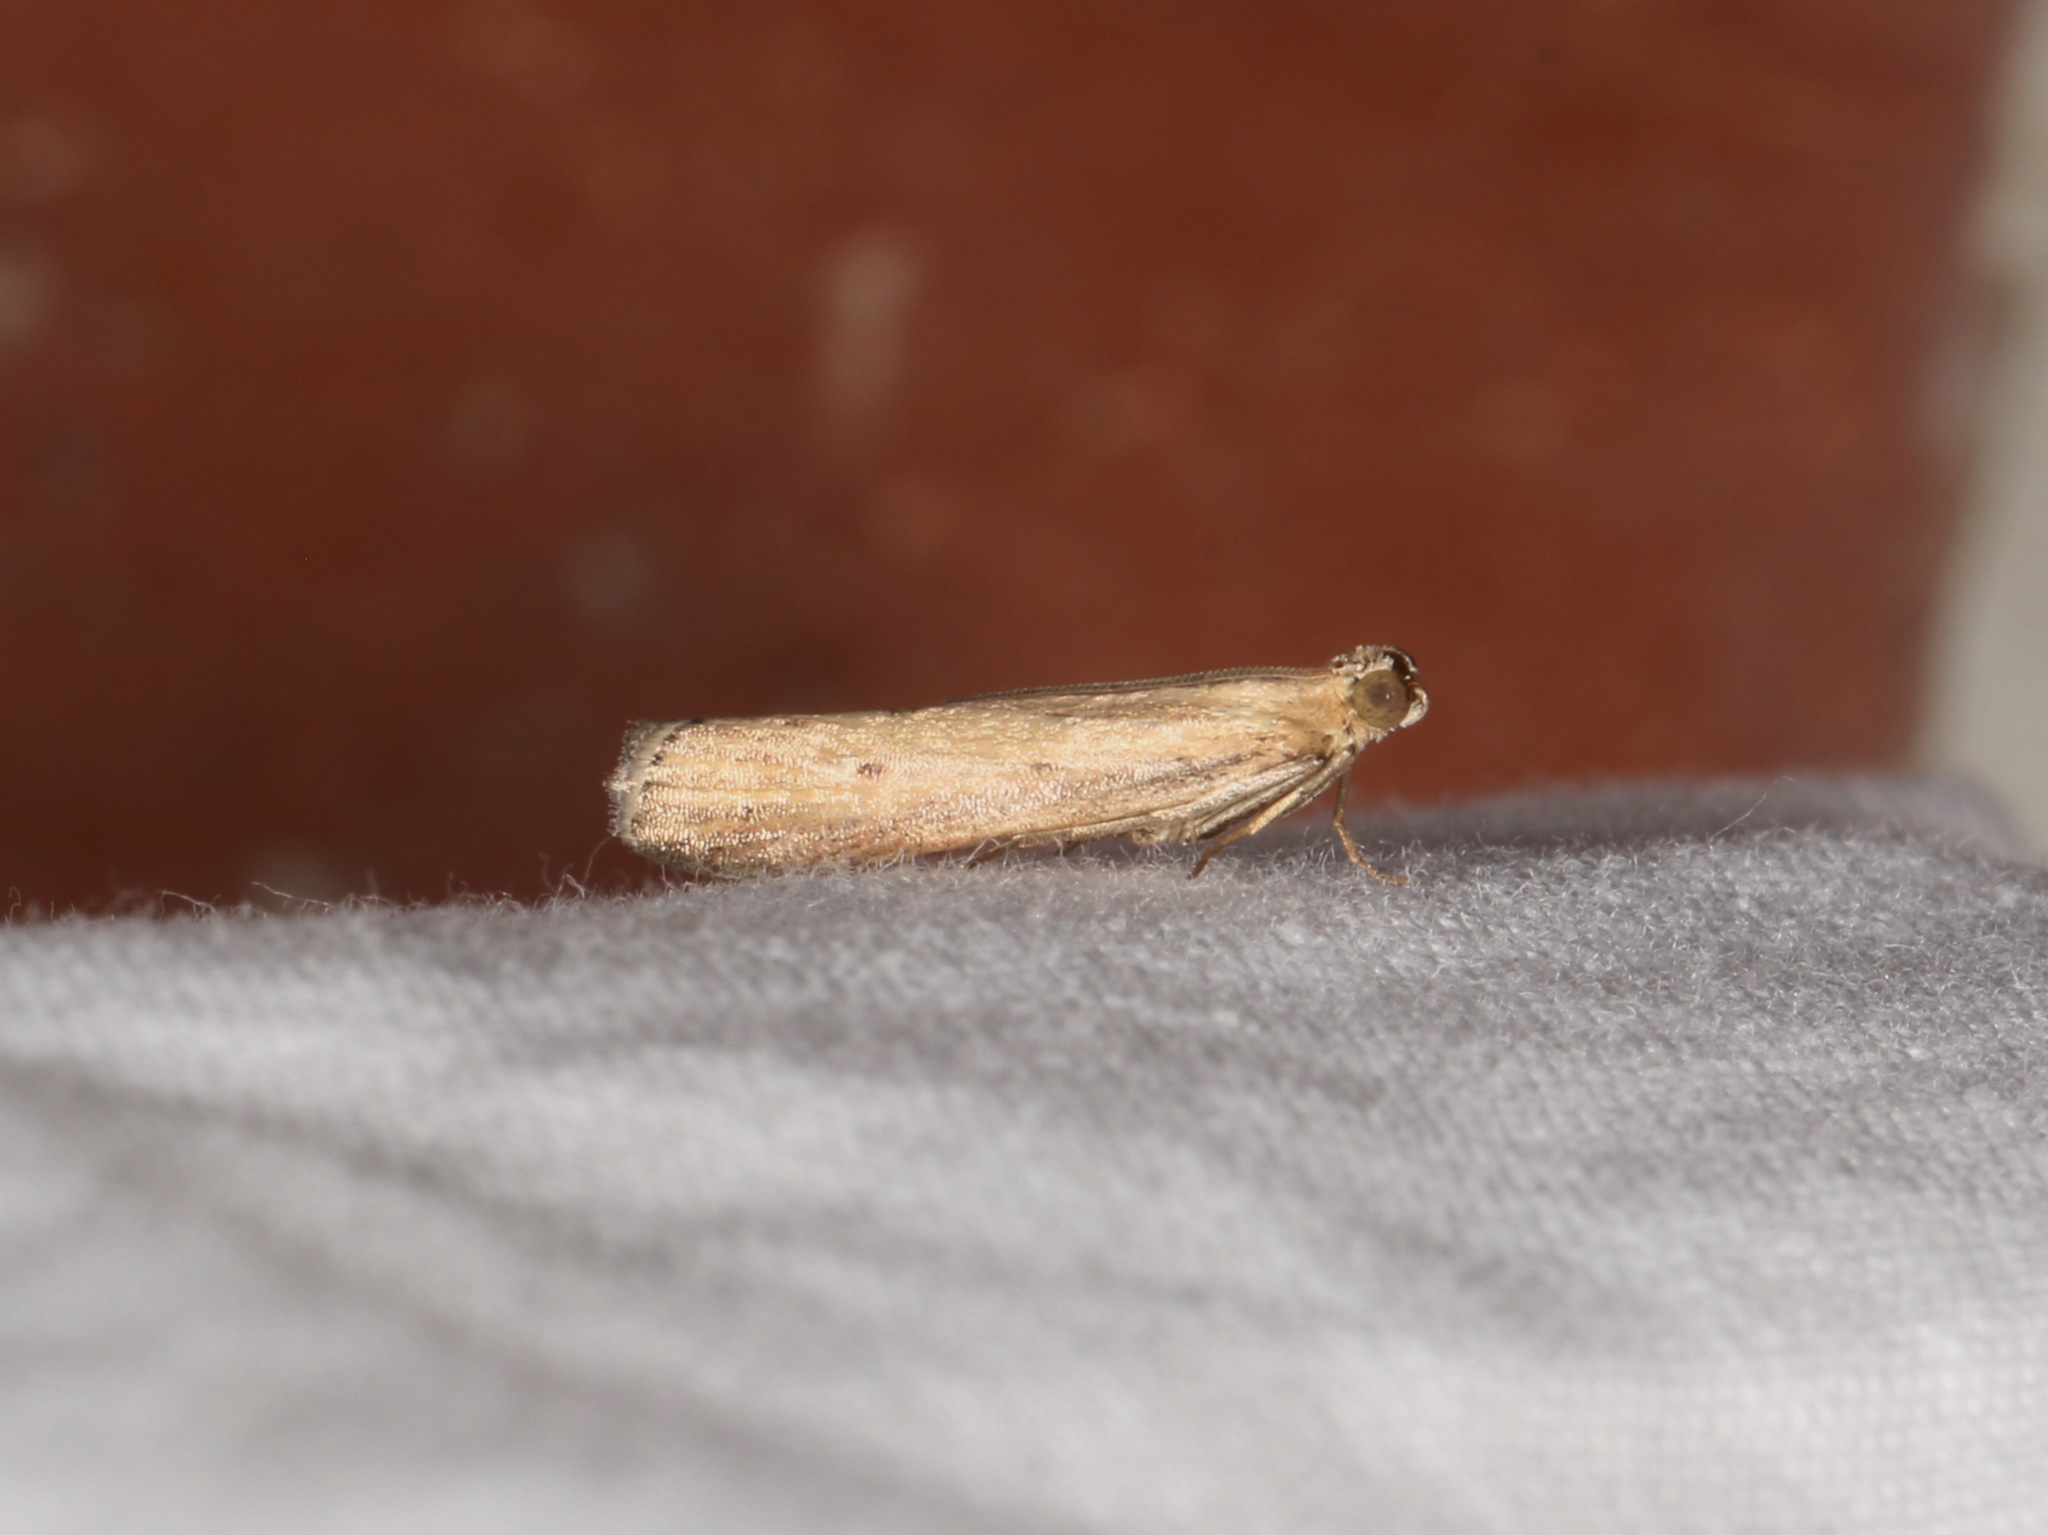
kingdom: Animalia
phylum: Arthropoda
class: Insecta
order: Lepidoptera
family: Pyralidae
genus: Faveria
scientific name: Faveria tritalis
